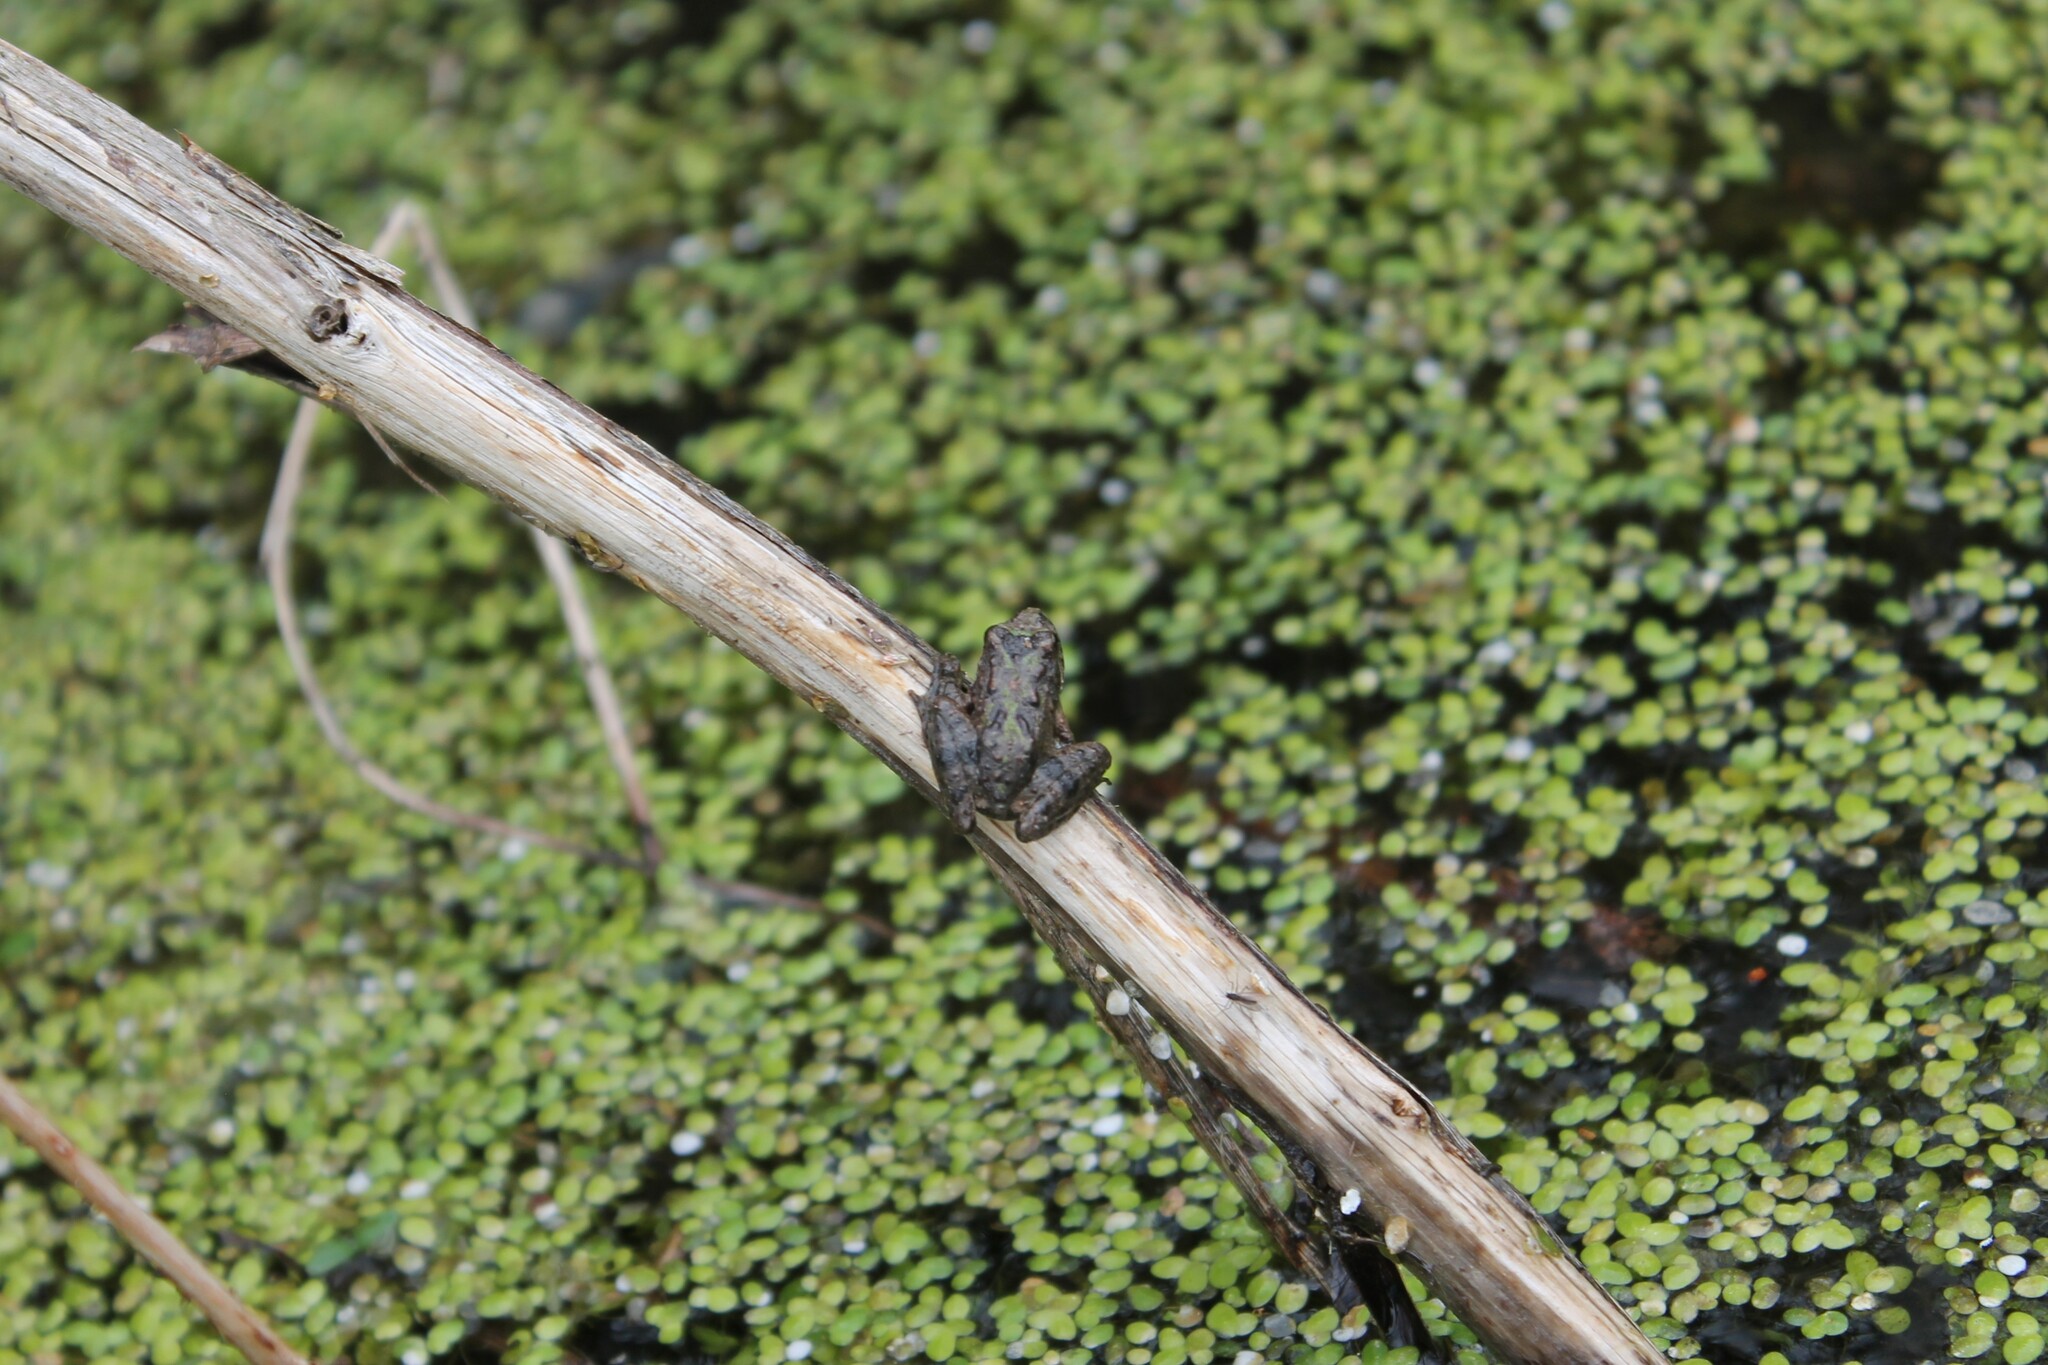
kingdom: Animalia
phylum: Chordata
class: Amphibia
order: Anura
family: Hylidae
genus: Acris
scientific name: Acris blanchardi
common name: Blanchard's cricket frog
